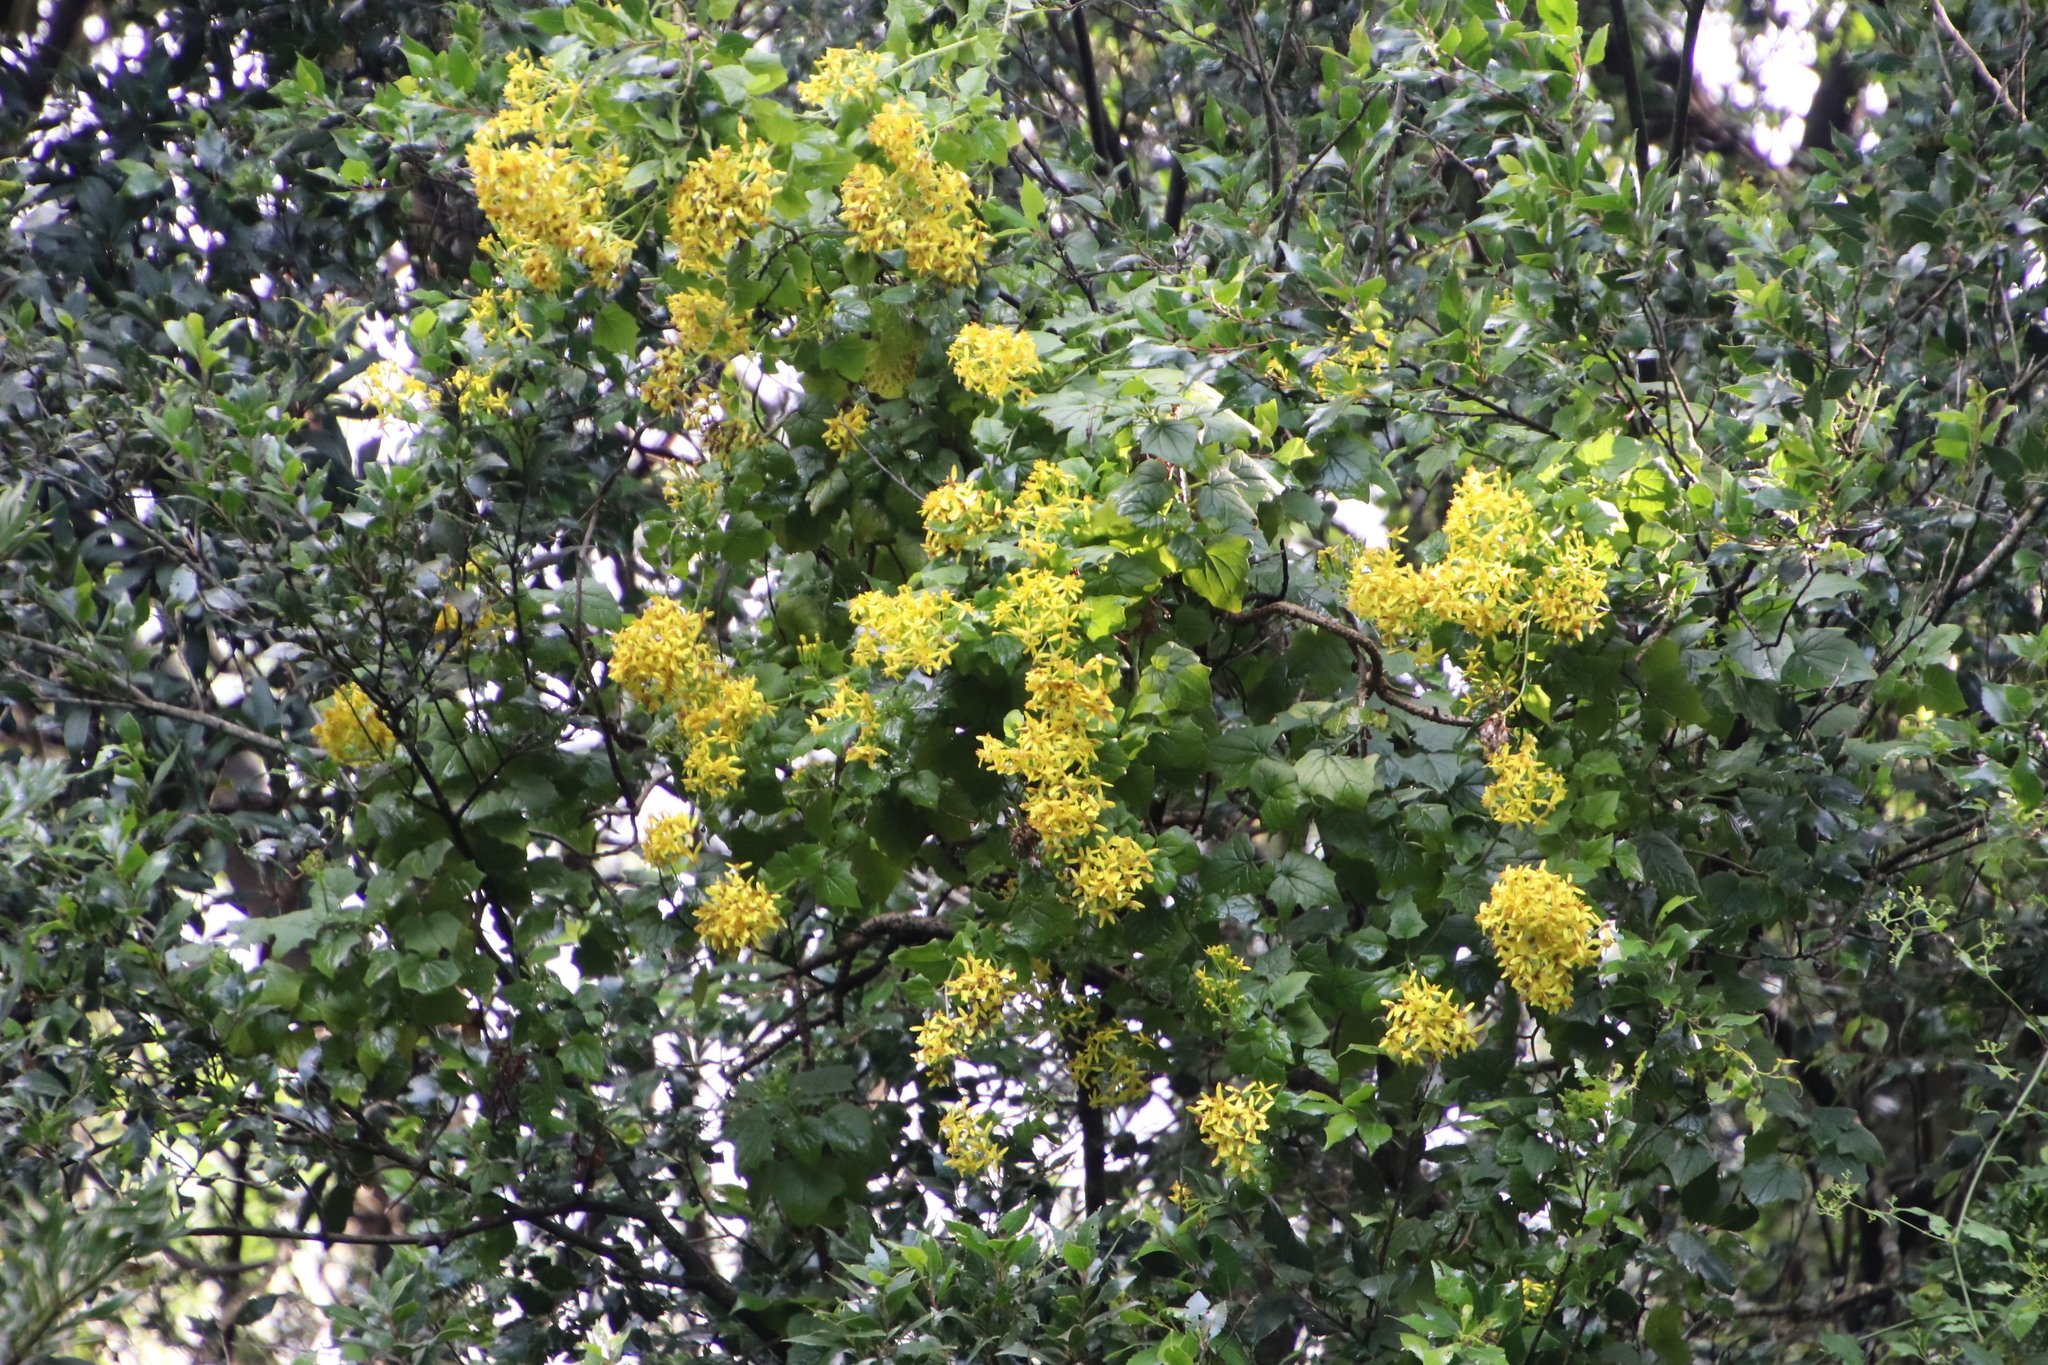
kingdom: Plantae
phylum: Tracheophyta
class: Magnoliopsida
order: Asterales
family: Asteraceae
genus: Senecio
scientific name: Senecio tamoides
